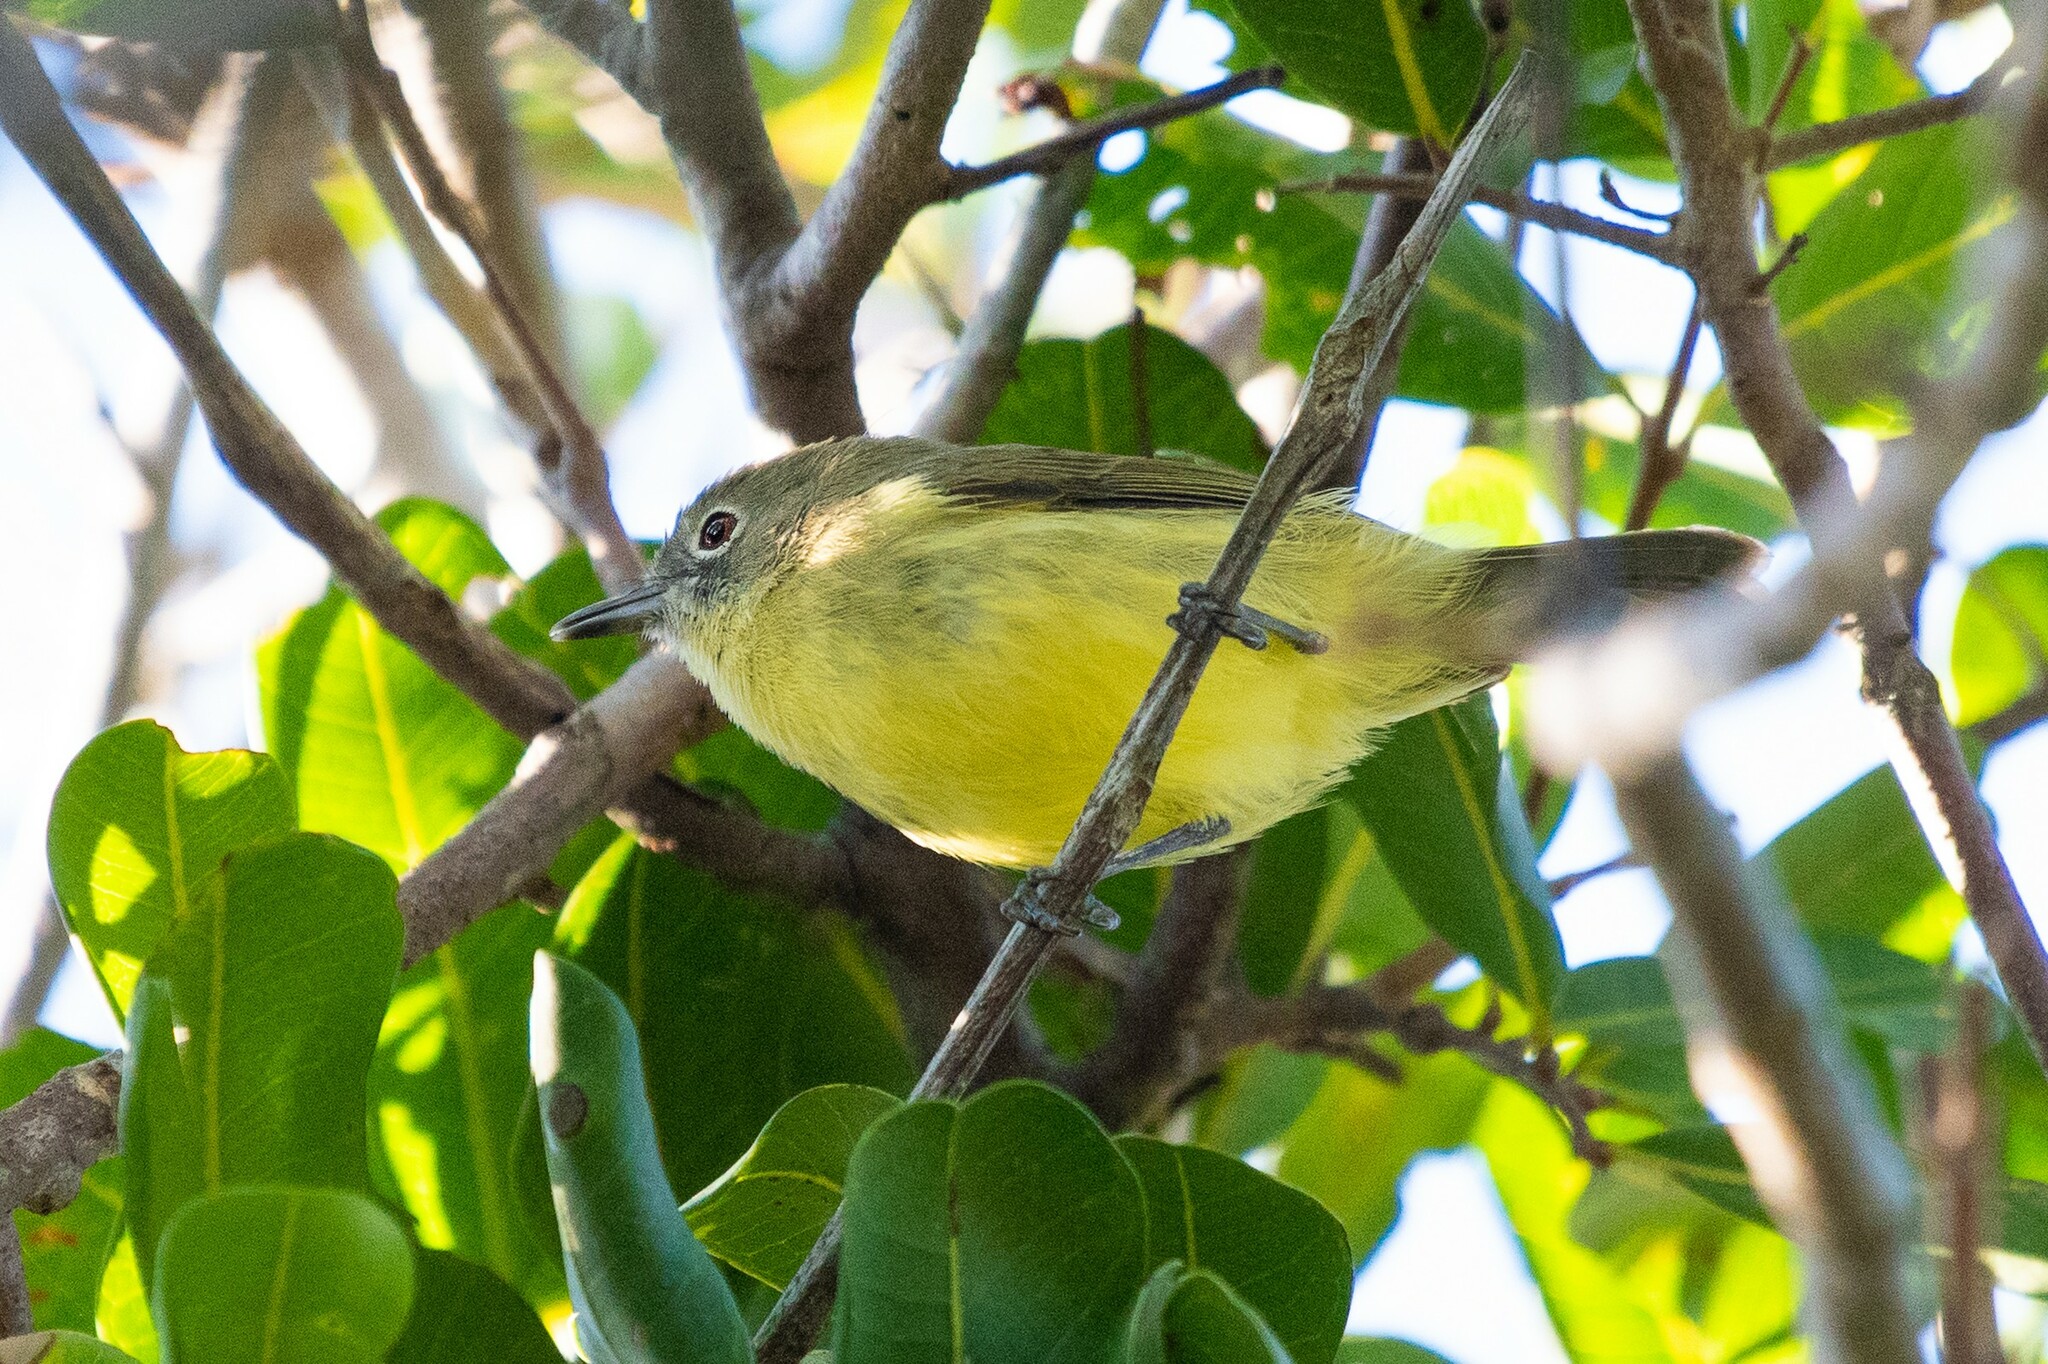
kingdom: Animalia
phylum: Chordata
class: Aves
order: Passeriformes
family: Acanthizidae
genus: Gerygone
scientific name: Gerygone palpebrosa
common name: Fairy gerygone
